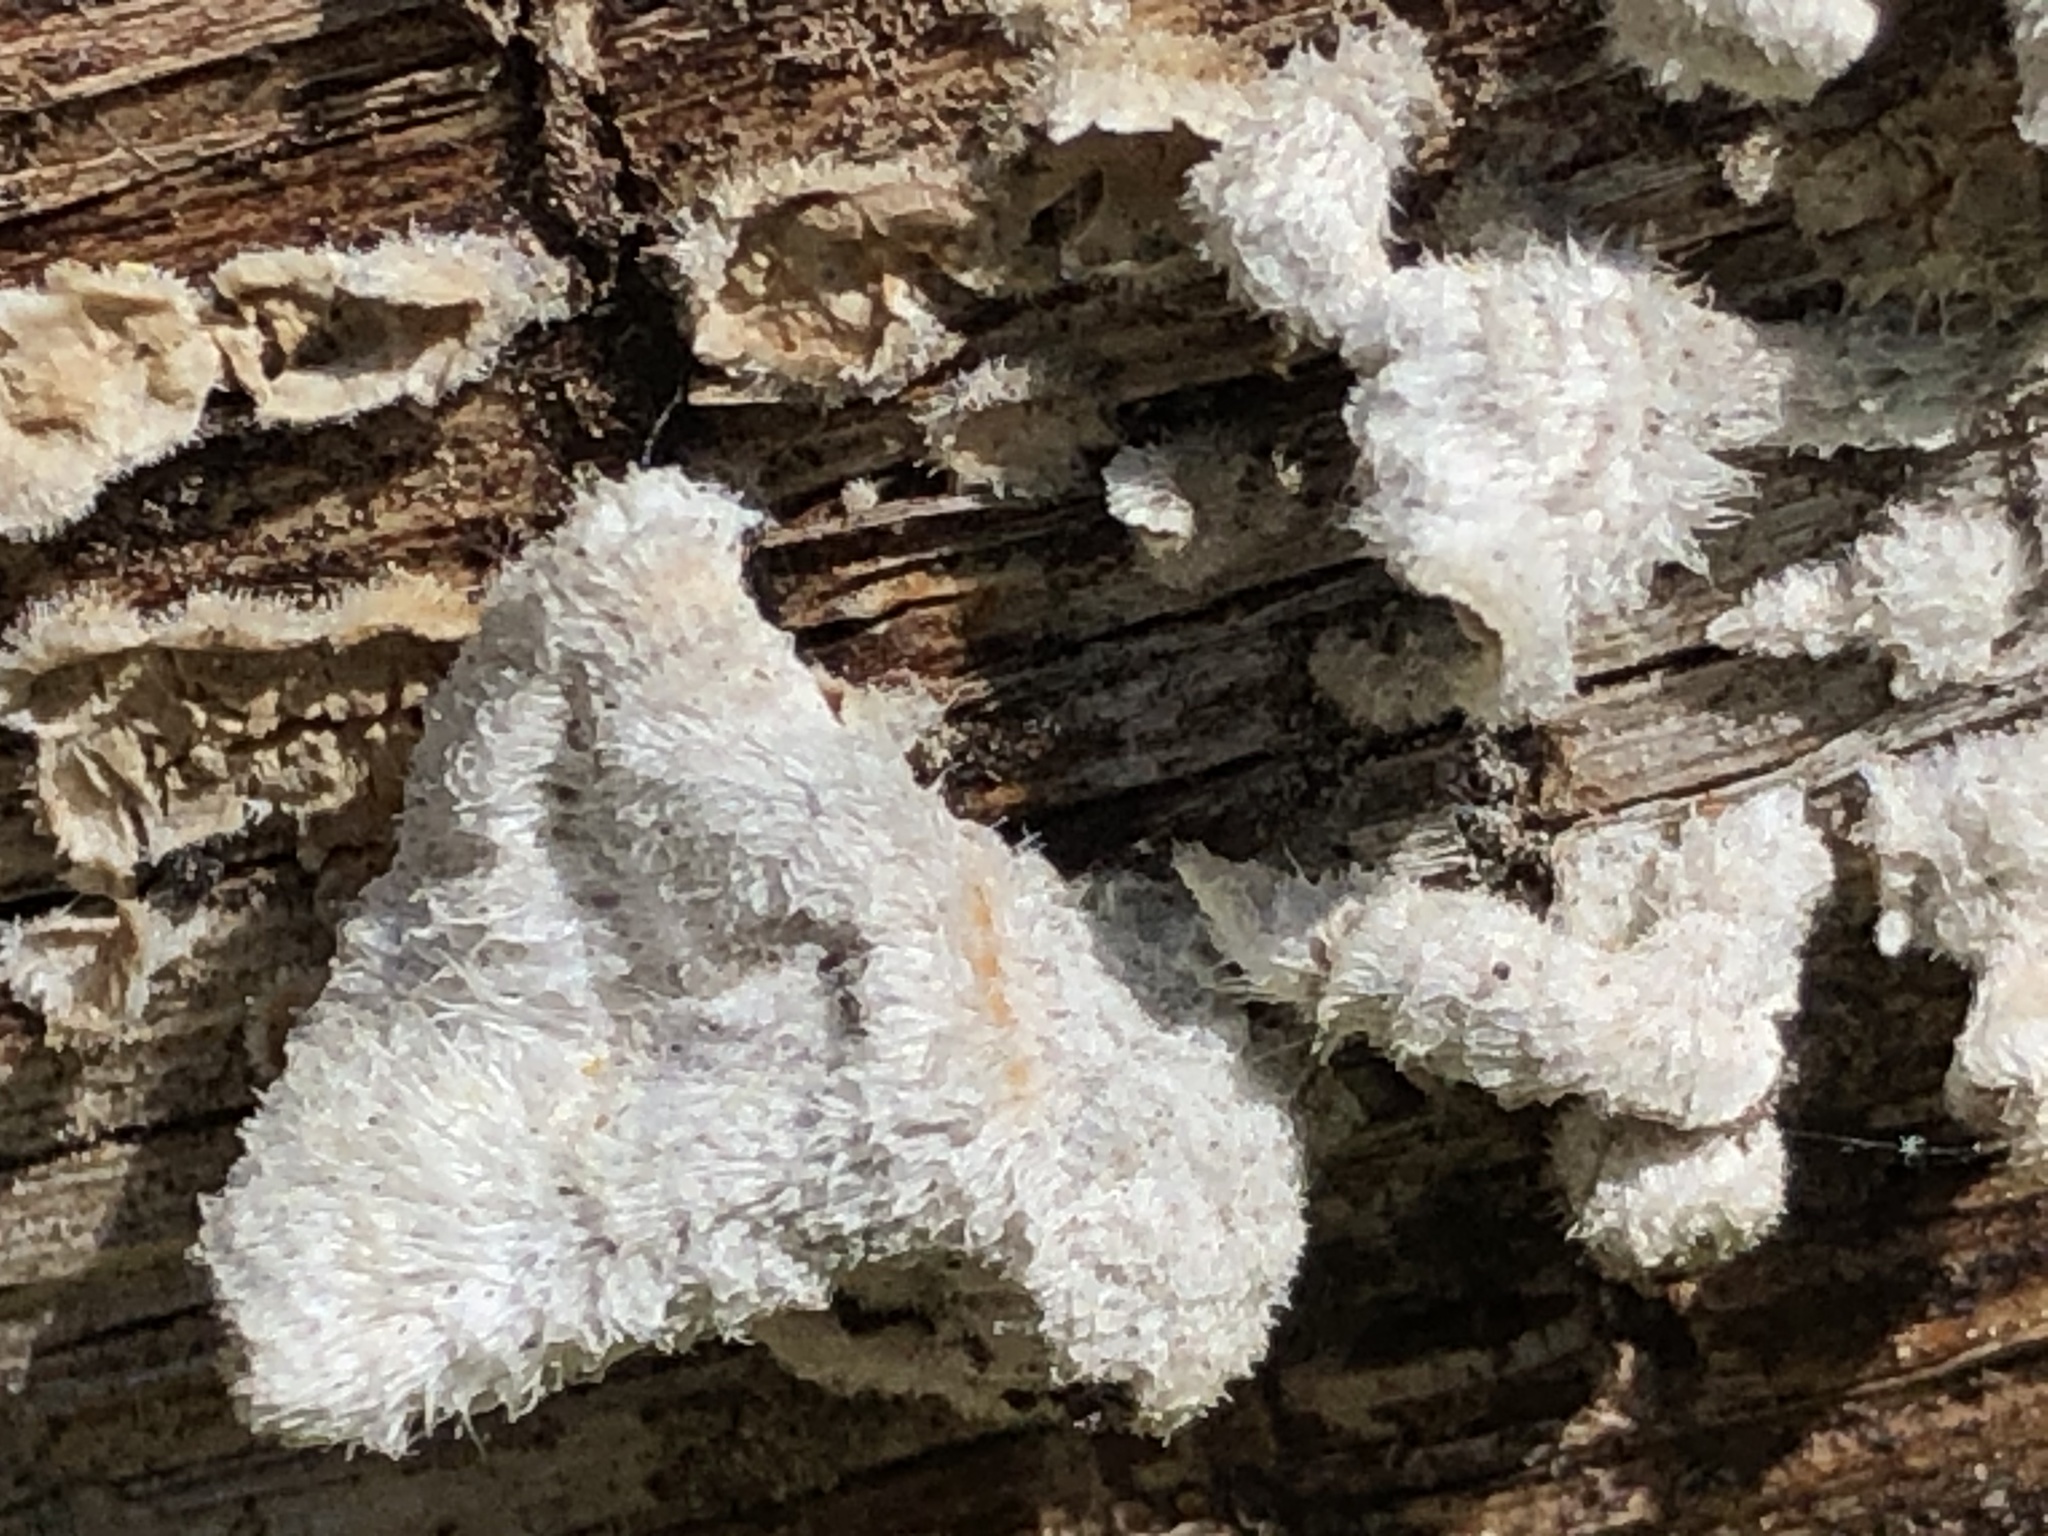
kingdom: Fungi
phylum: Basidiomycota
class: Agaricomycetes
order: Russulales
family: Stereaceae
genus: Stereum
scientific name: Stereum ochraceoflavum
